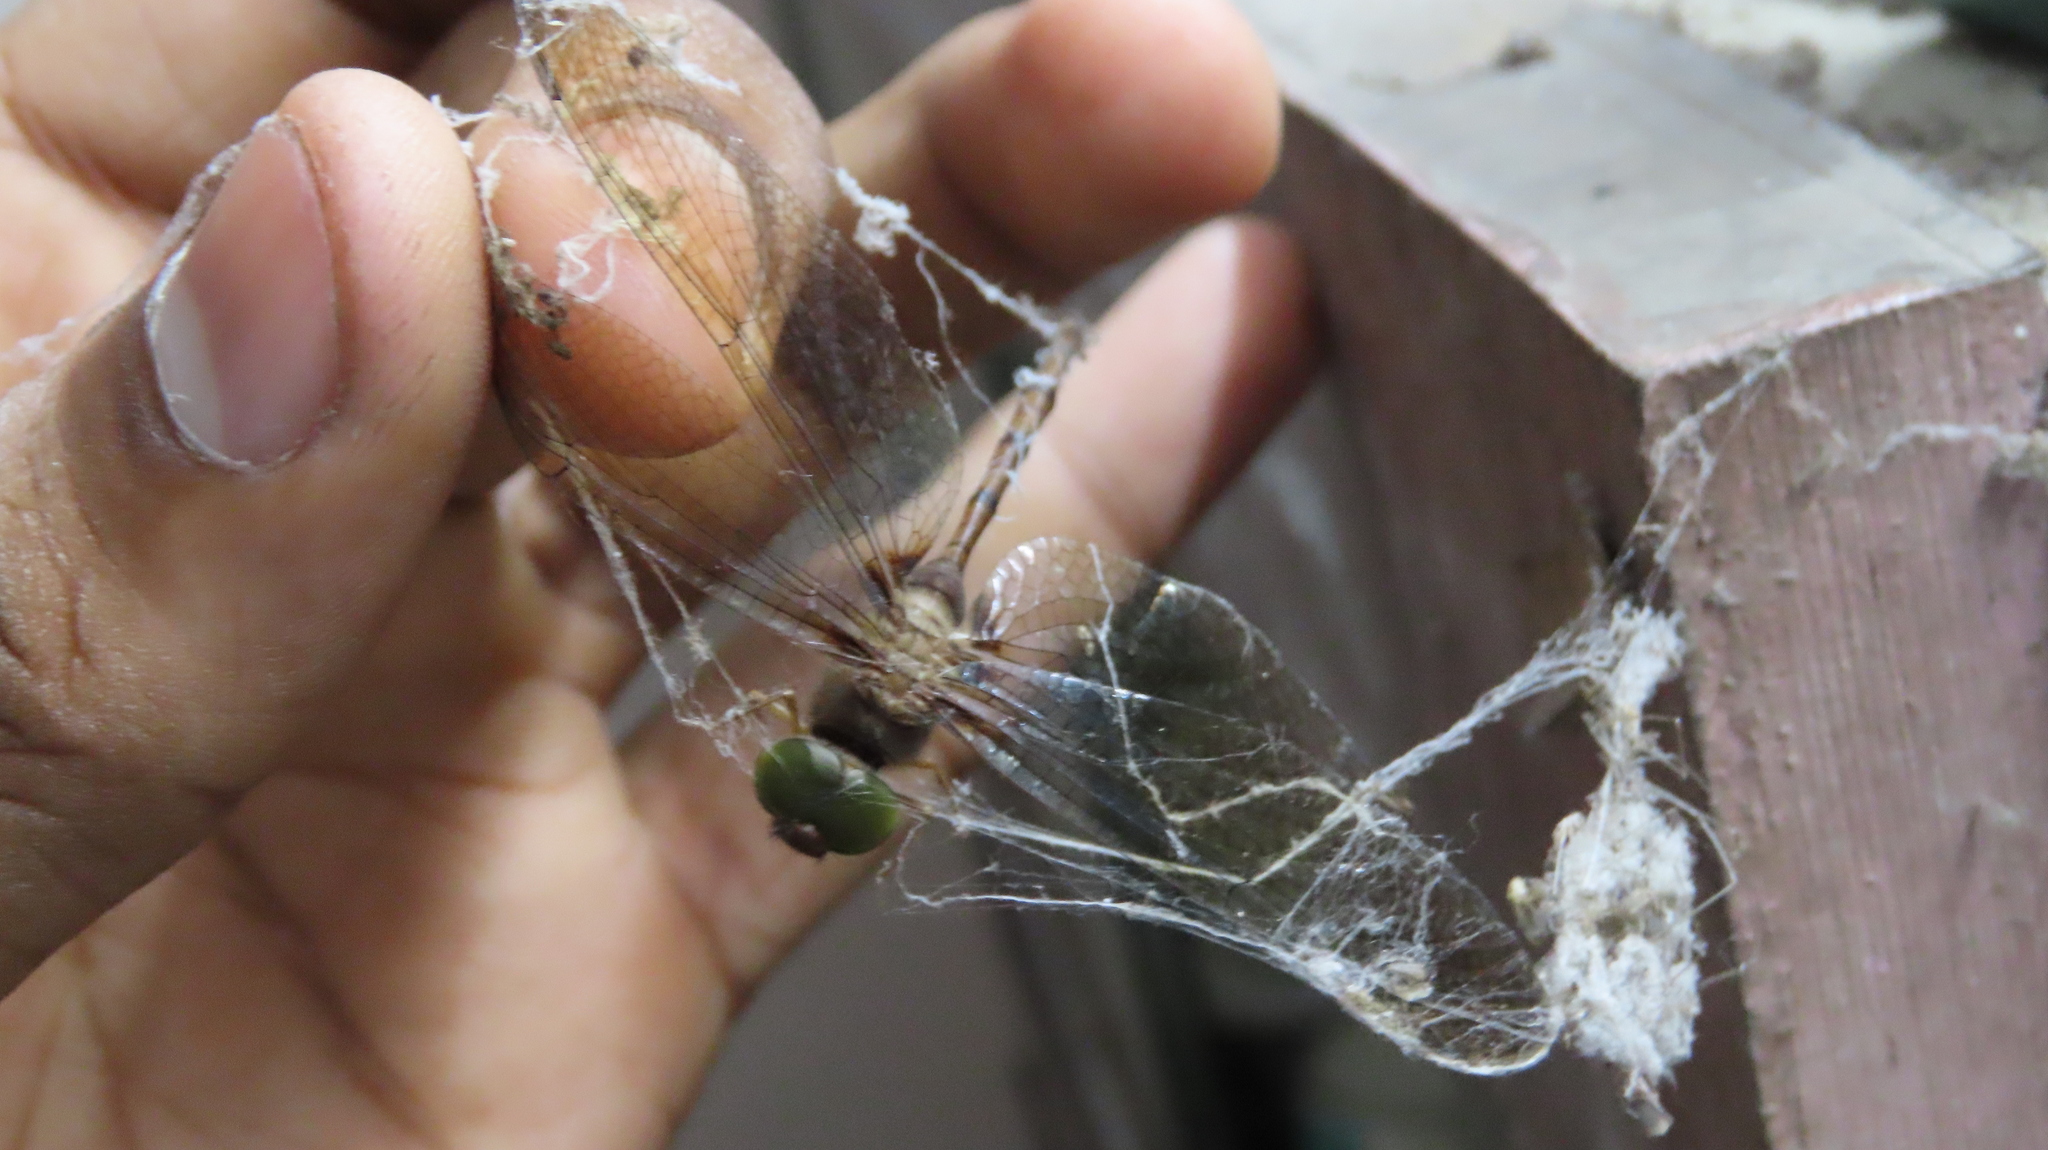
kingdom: Animalia
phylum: Arthropoda
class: Insecta
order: Odonata
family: Libellulidae
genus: Zyxomma
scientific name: Zyxomma petiolatum
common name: Dingy dusk-darter
